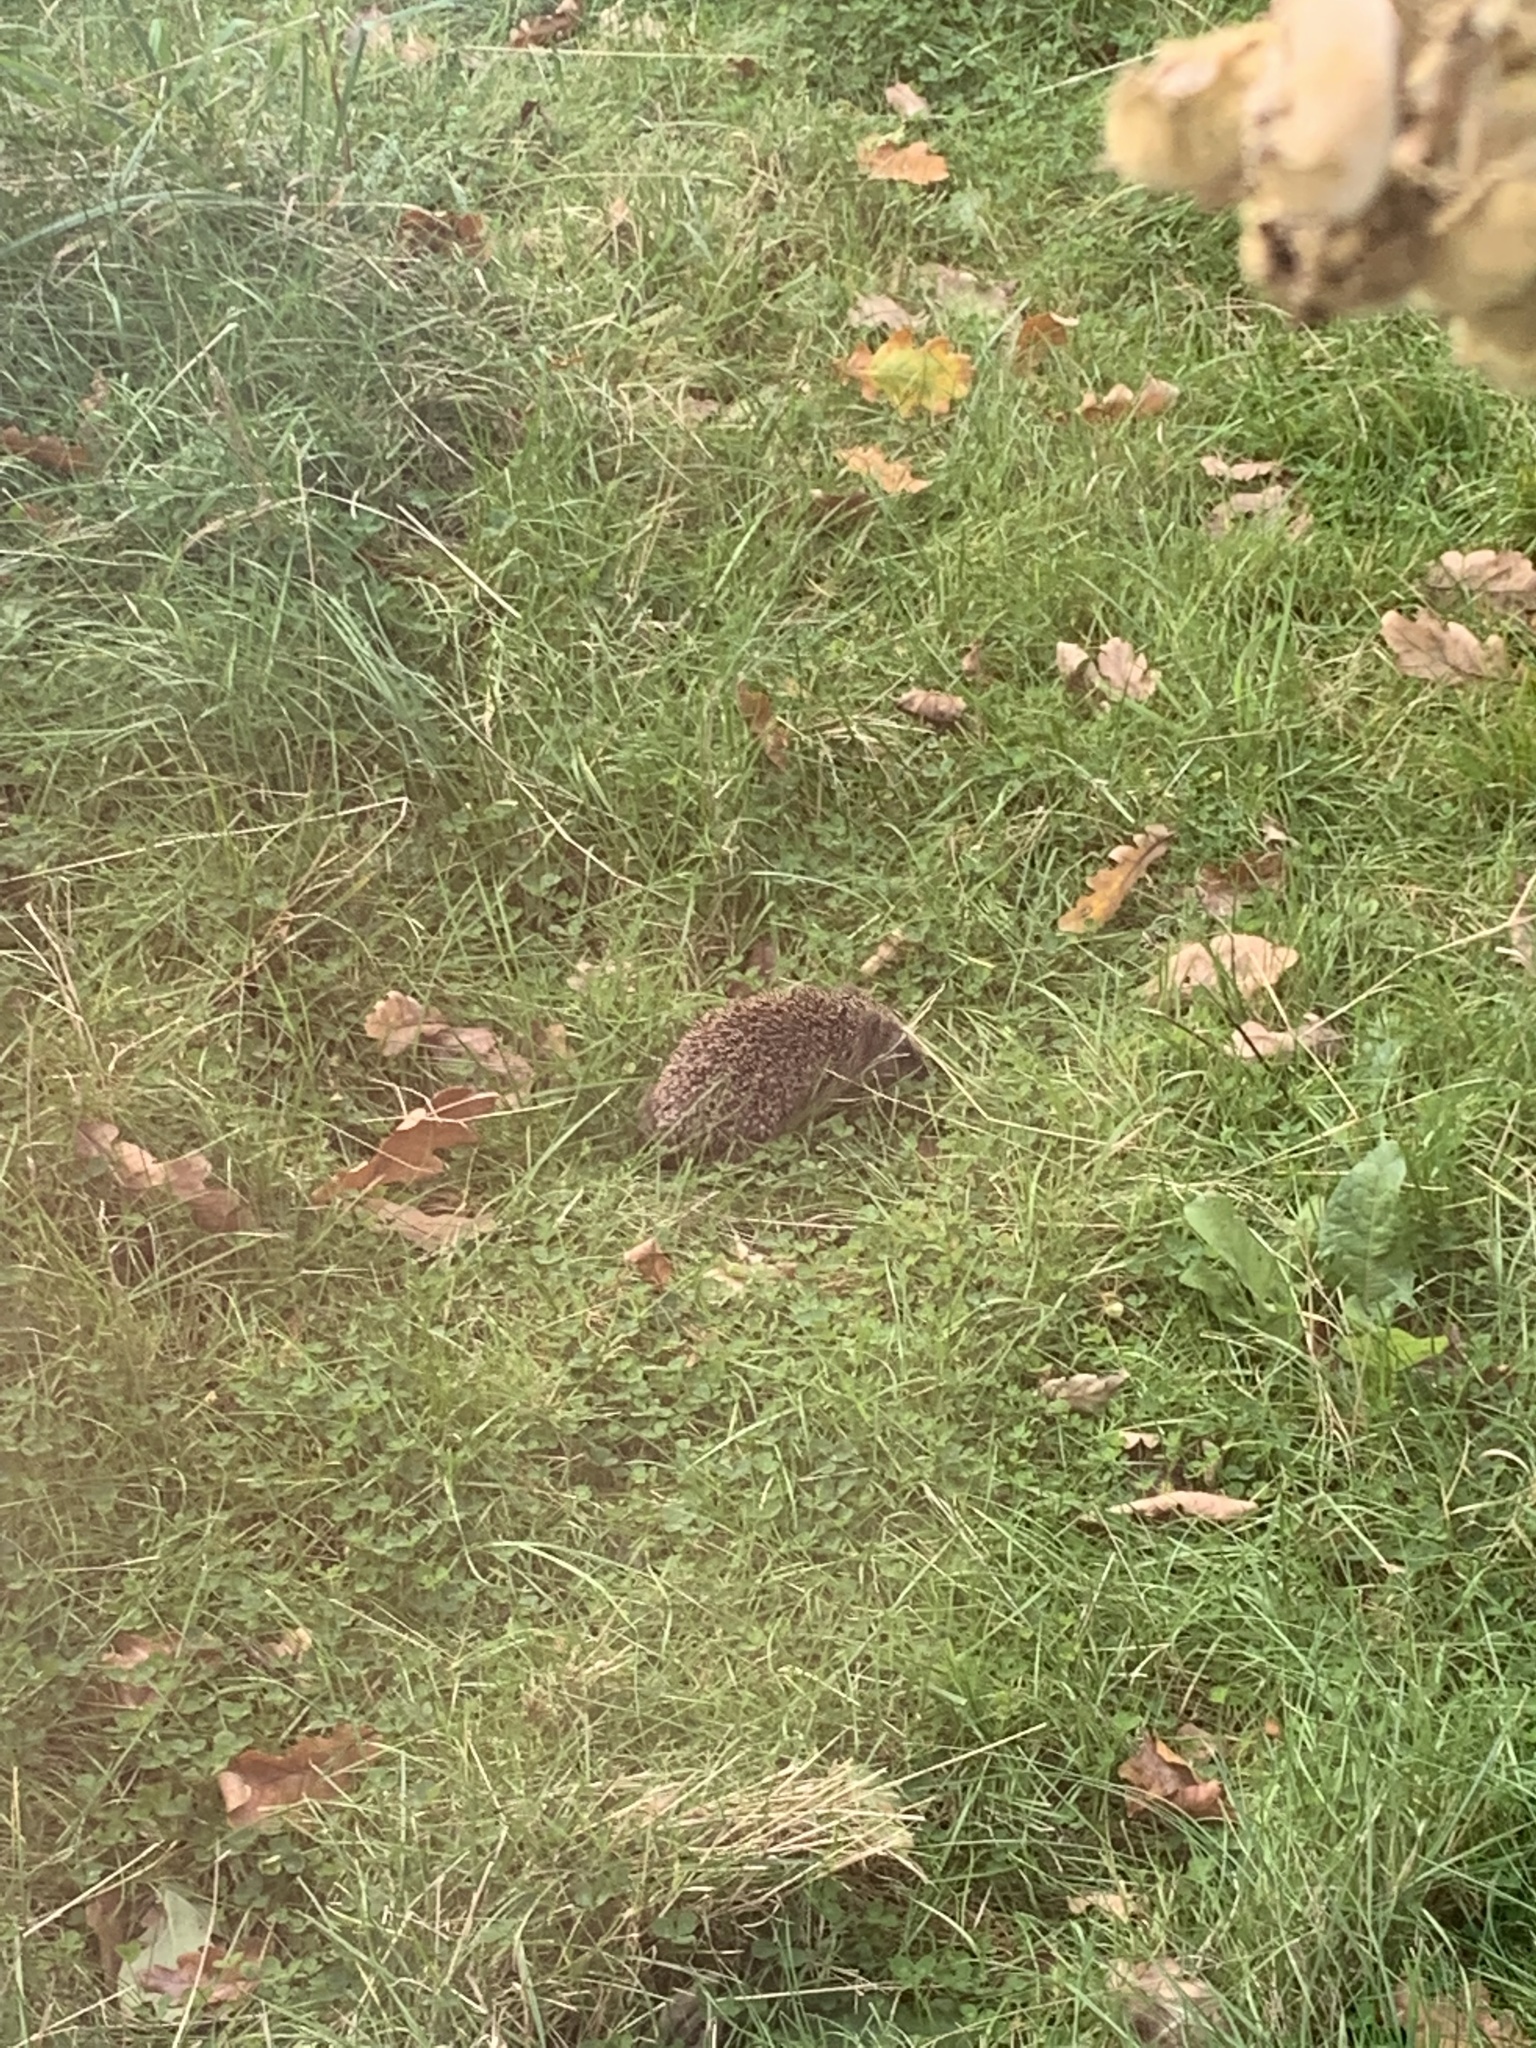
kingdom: Animalia
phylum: Chordata
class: Mammalia
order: Erinaceomorpha
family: Erinaceidae
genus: Erinaceus
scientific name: Erinaceus europaeus
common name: West european hedgehog
